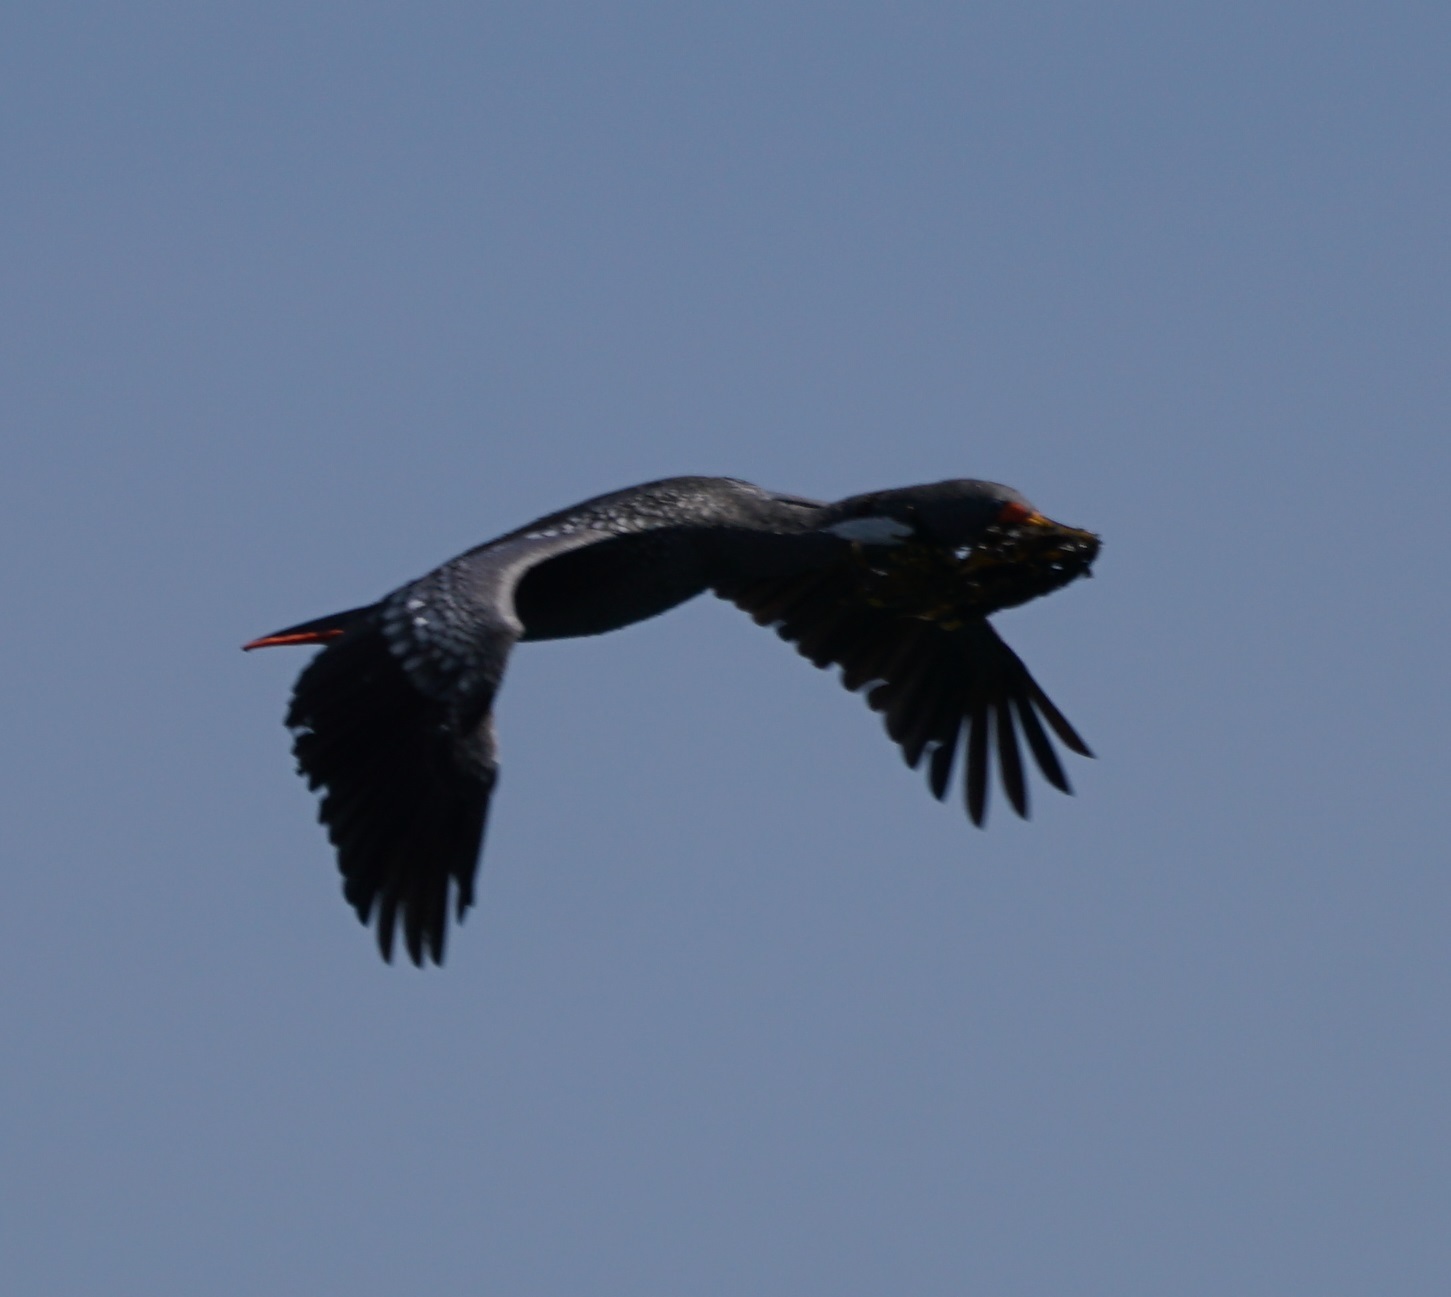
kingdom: Animalia
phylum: Chordata
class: Aves
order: Suliformes
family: Phalacrocoracidae
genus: Phalacrocorax
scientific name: Phalacrocorax gaimardi
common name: Red-legged cormorant
